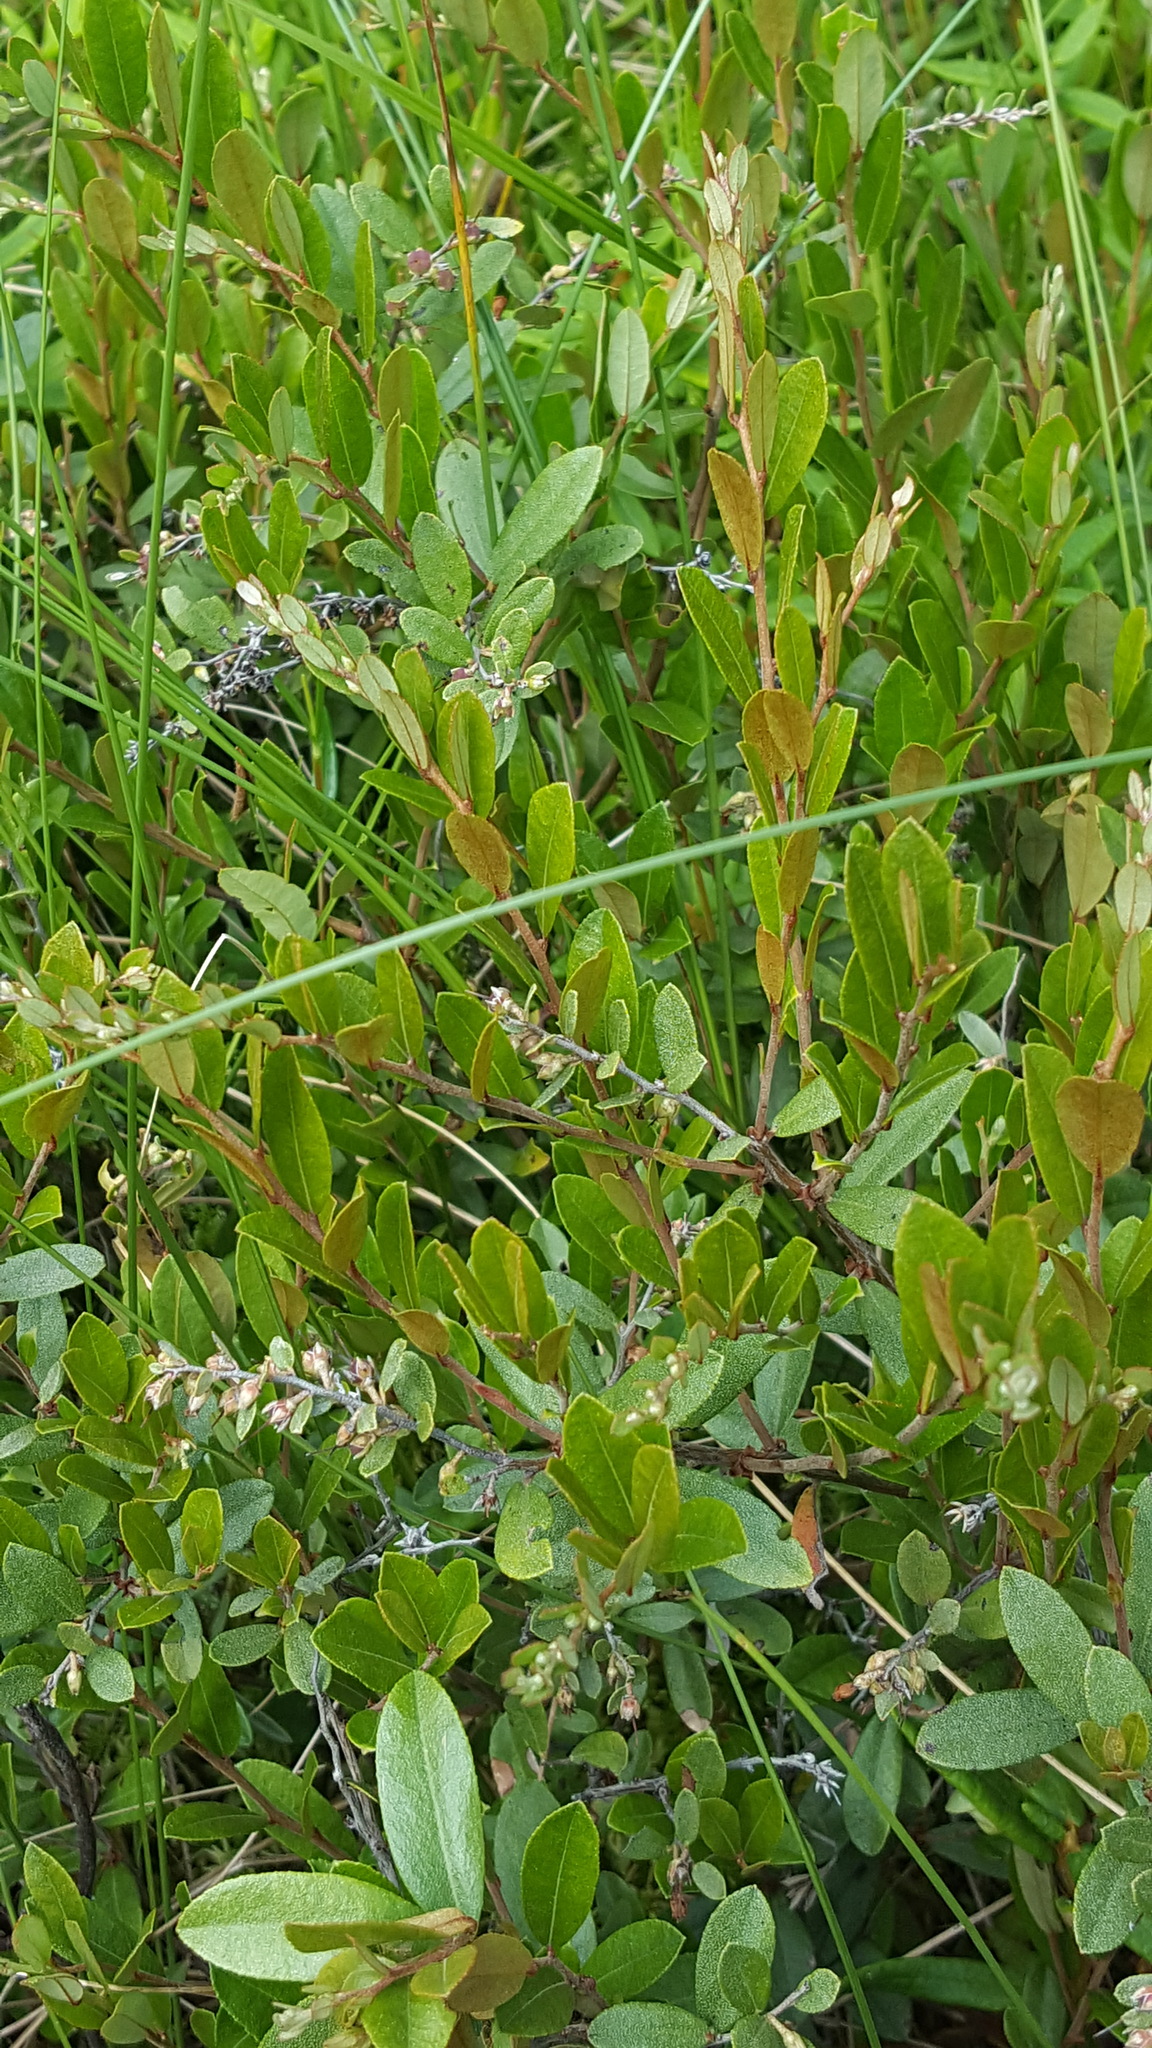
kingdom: Plantae
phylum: Tracheophyta
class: Magnoliopsida
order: Ericales
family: Ericaceae
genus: Chamaedaphne
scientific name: Chamaedaphne calyculata
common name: Leatherleaf
